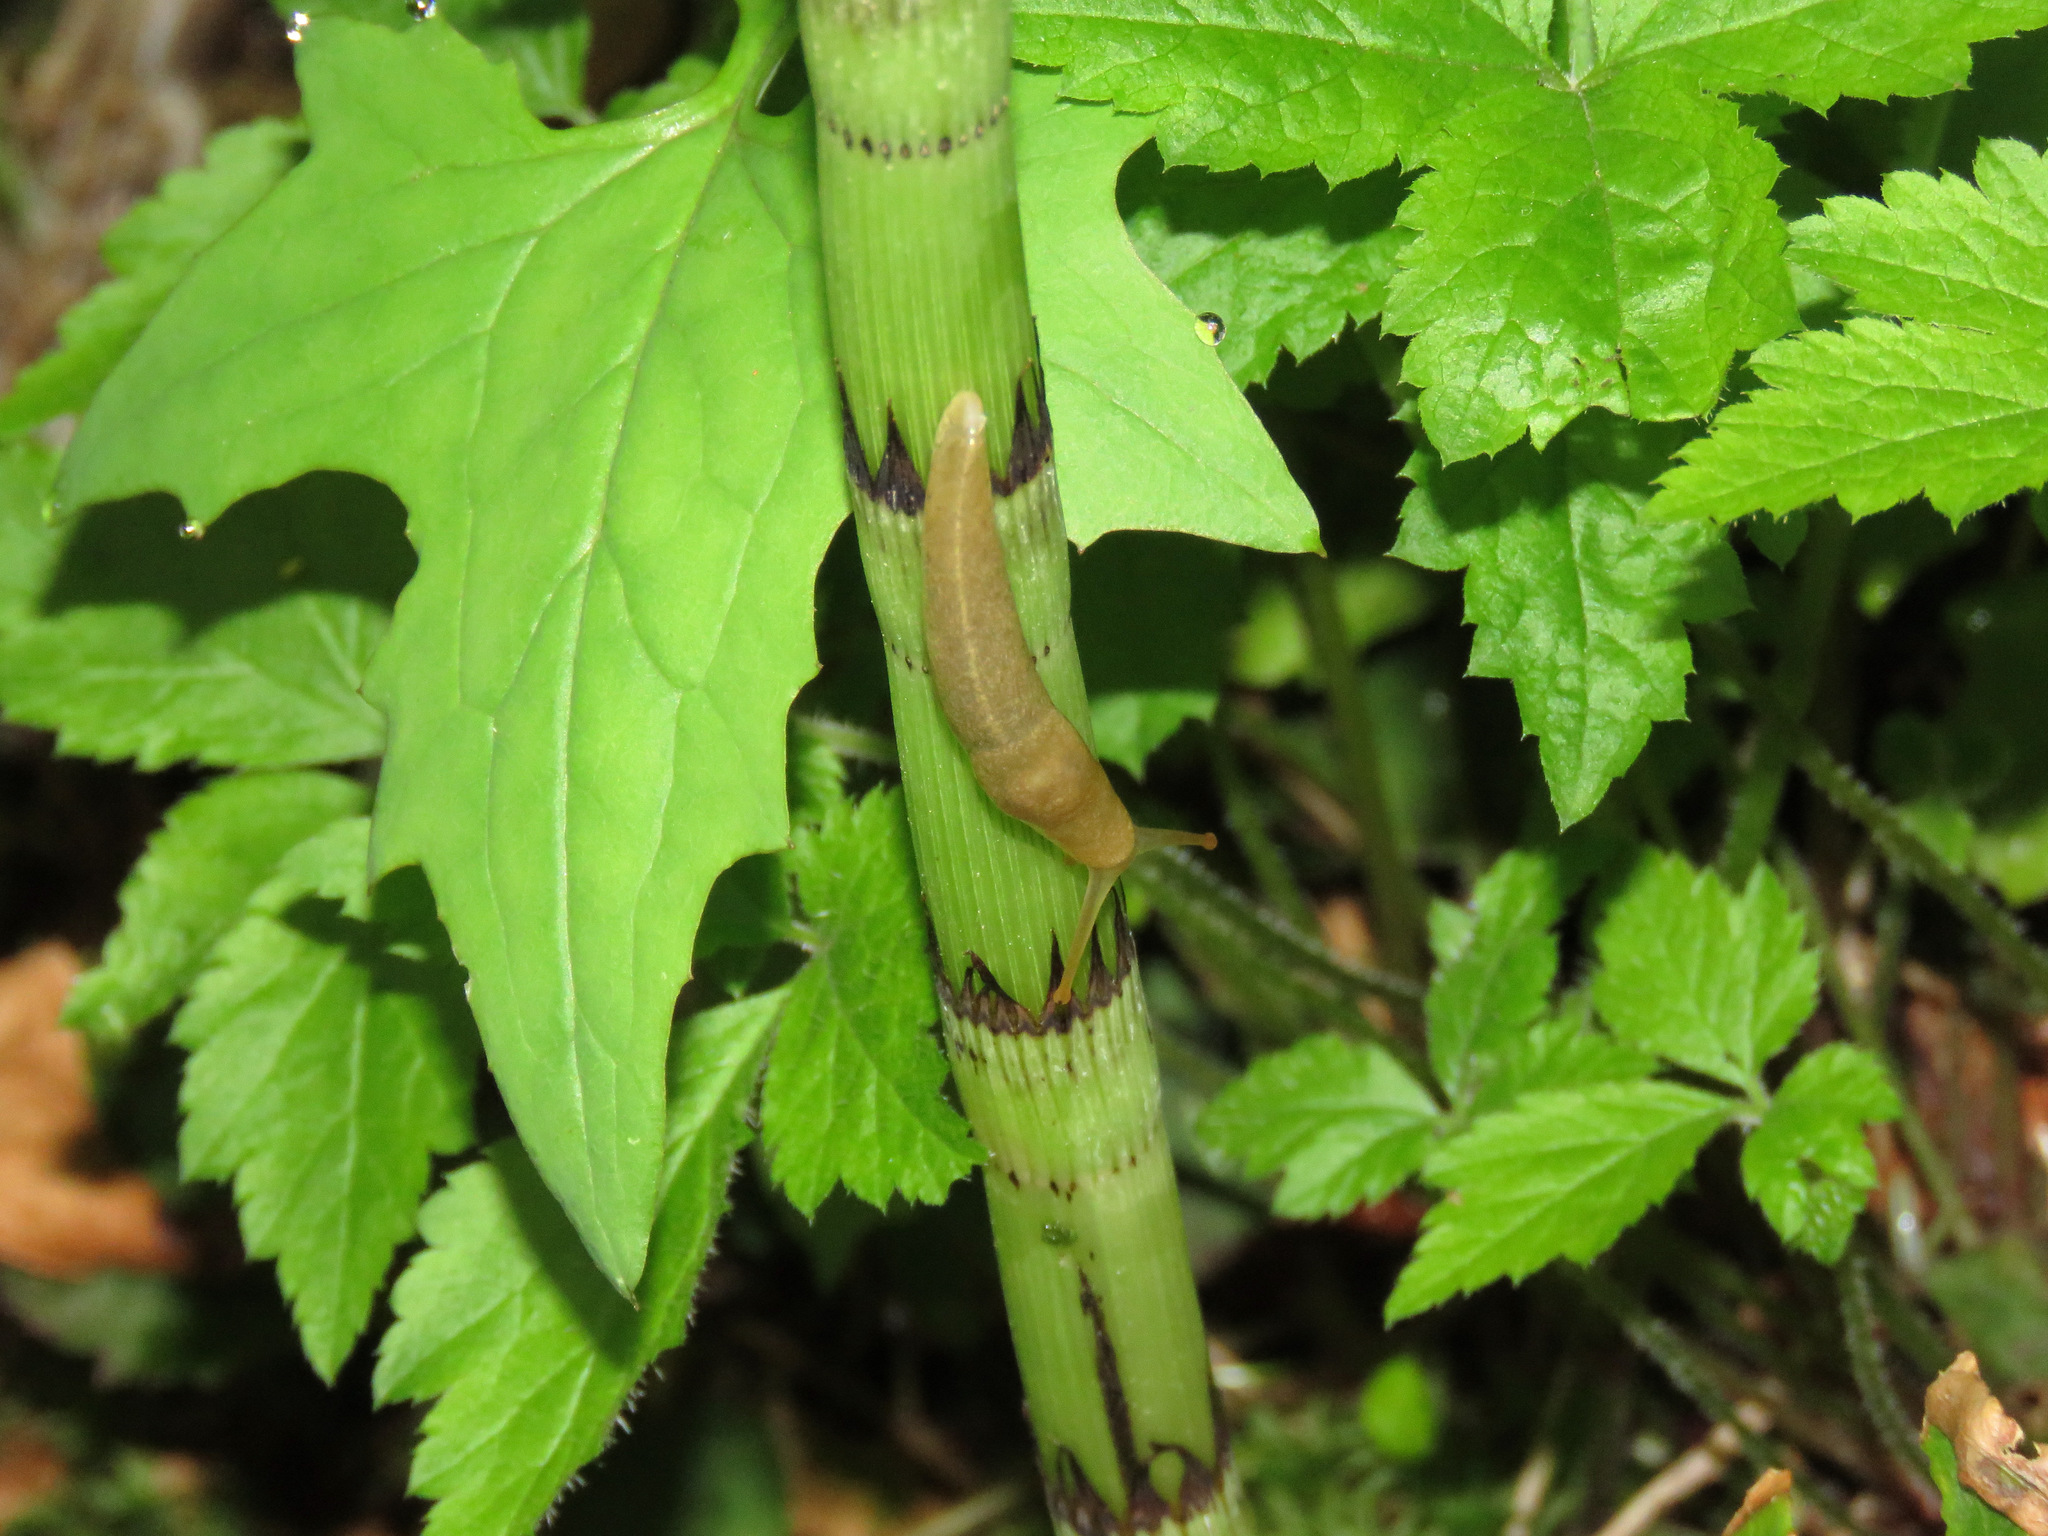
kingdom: Animalia
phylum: Mollusca
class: Gastropoda
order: Stylommatophora
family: Ariolimacidae
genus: Ariolimax
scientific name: Ariolimax columbianus
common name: Pacific banana slug
